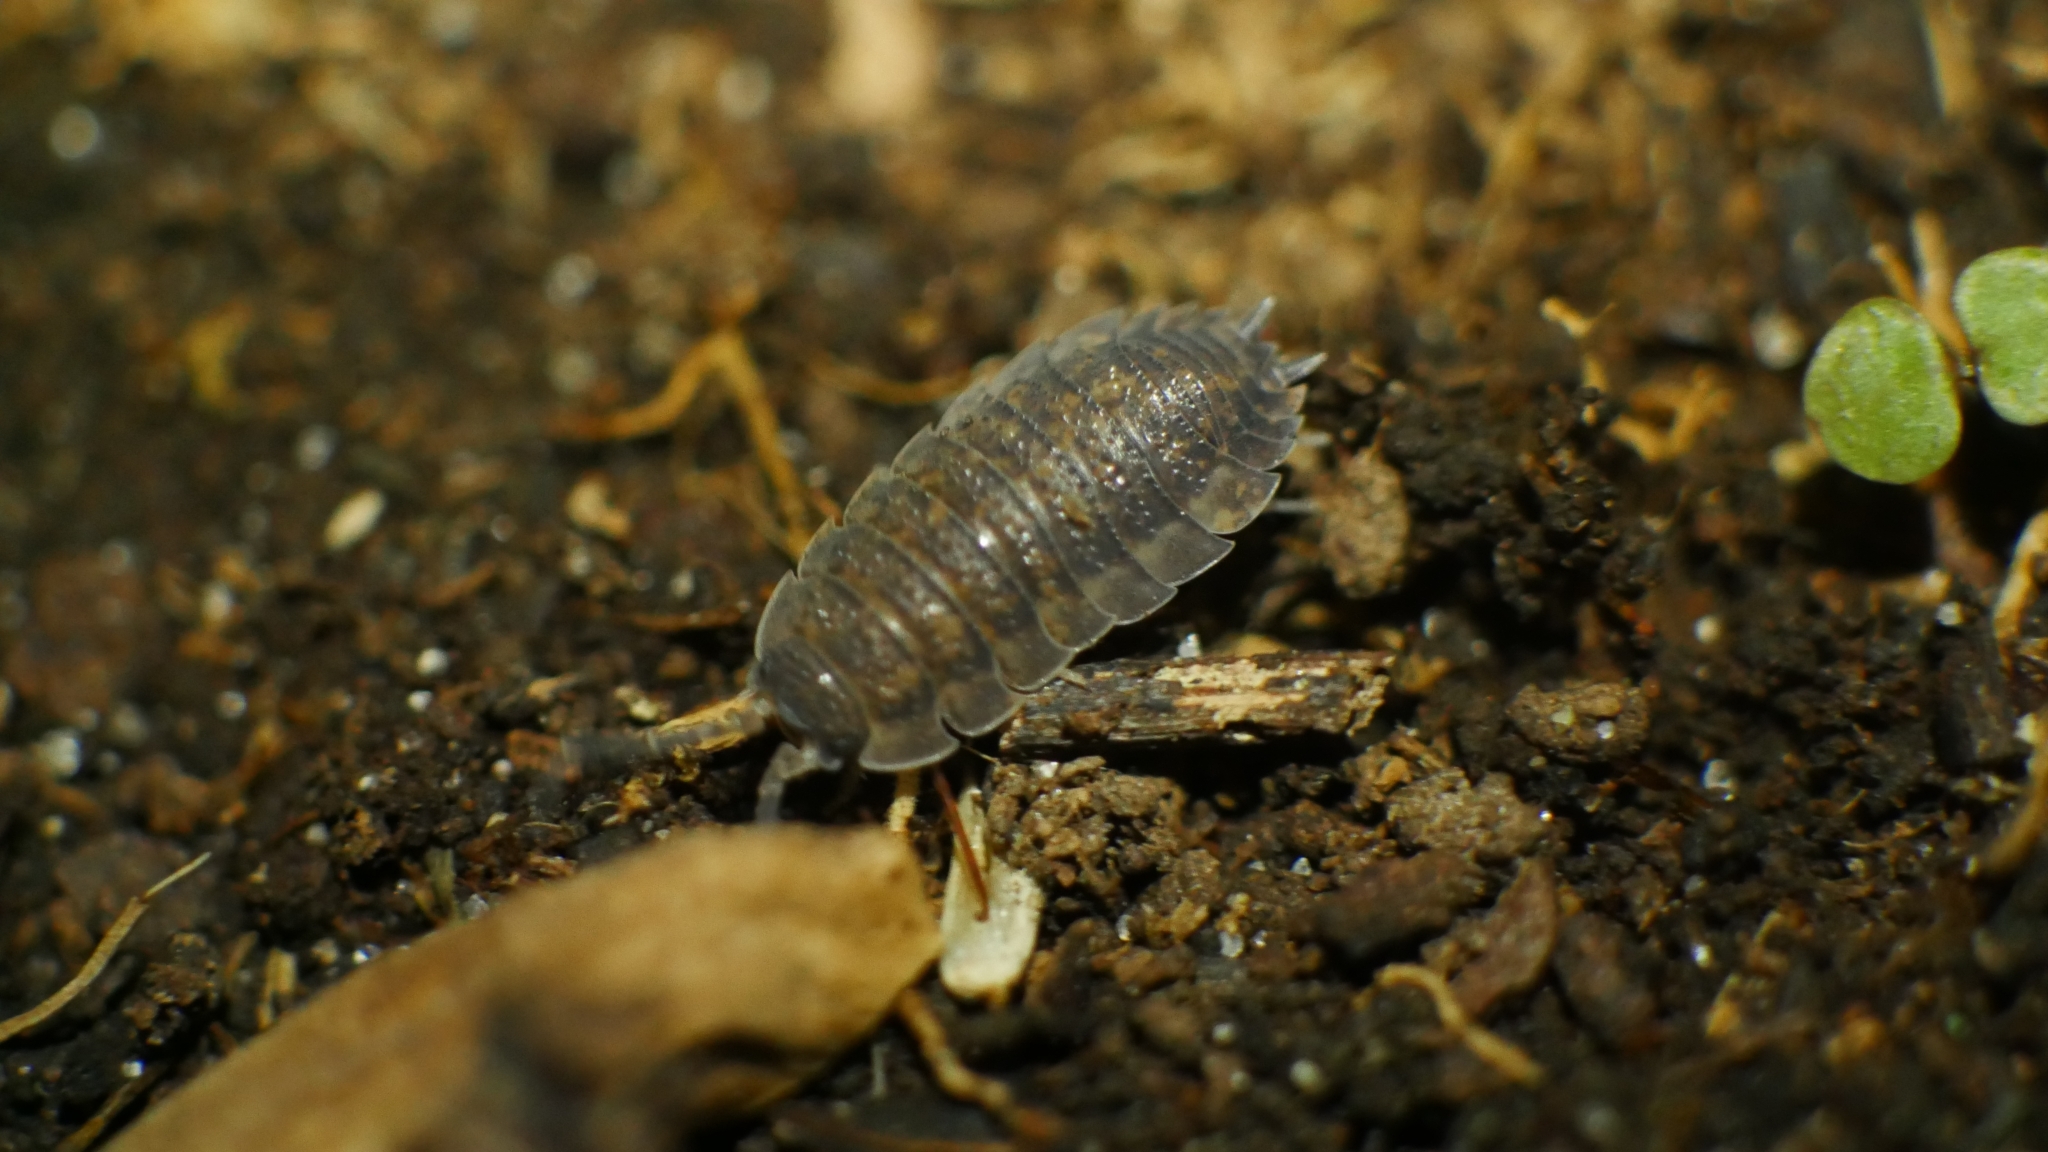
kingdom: Animalia
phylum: Arthropoda
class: Malacostraca
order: Isopoda
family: Porcellionidae
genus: Porcellio
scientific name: Porcellio scaber
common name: Common rough woodlouse
